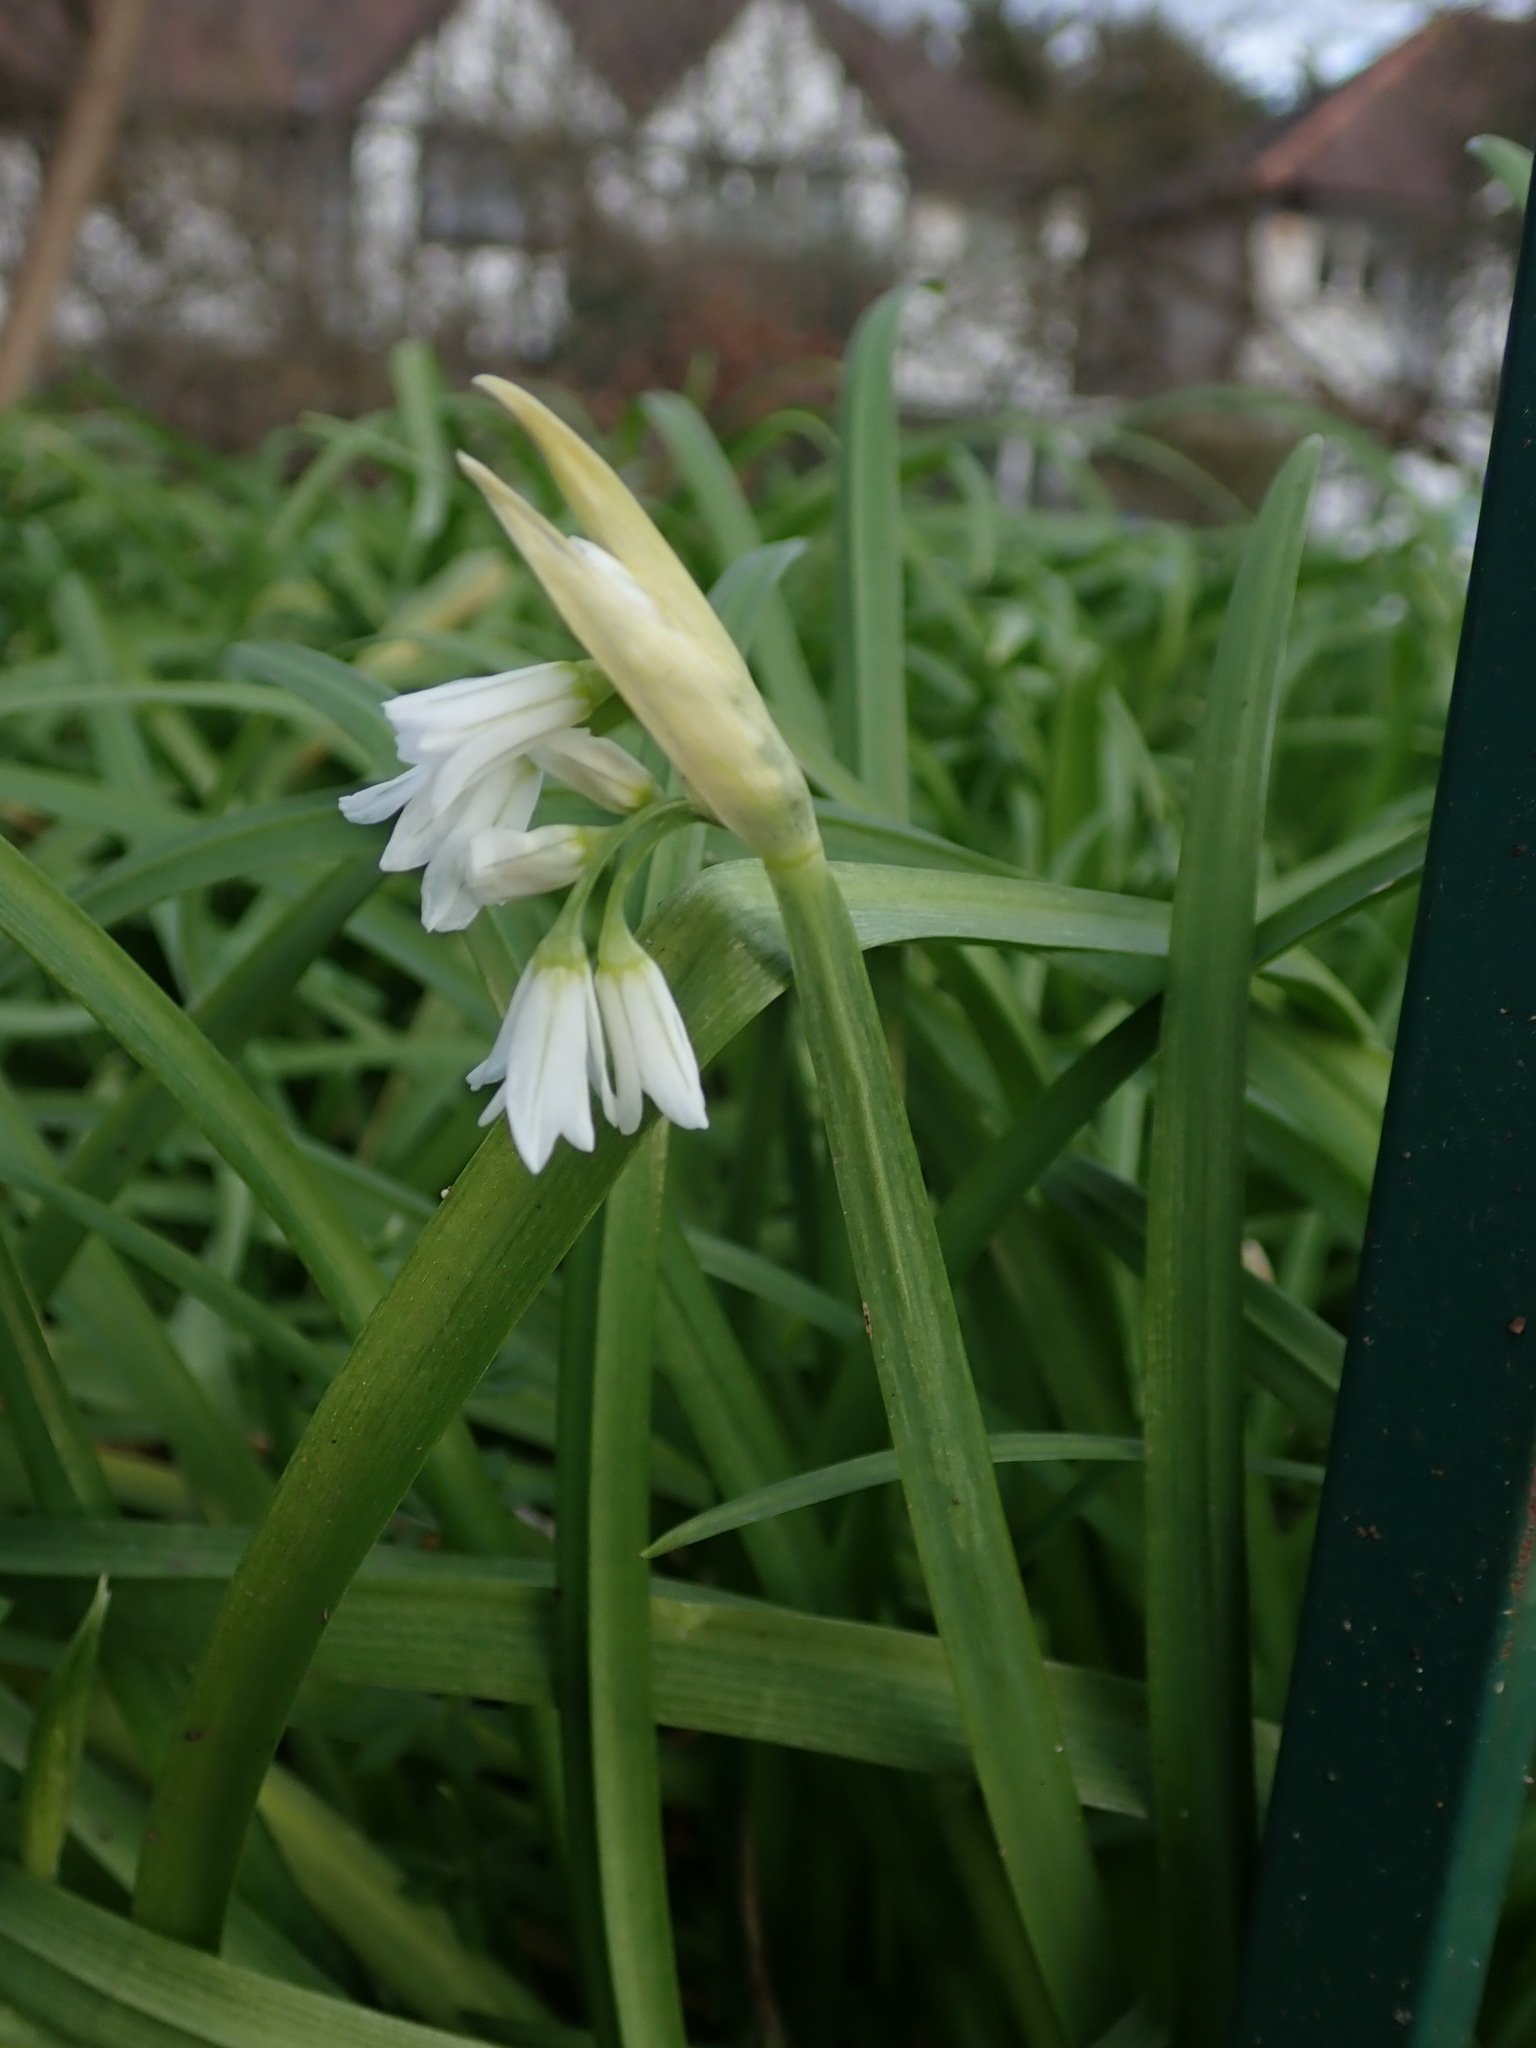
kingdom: Plantae
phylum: Tracheophyta
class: Liliopsida
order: Asparagales
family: Amaryllidaceae
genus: Allium
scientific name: Allium triquetrum
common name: Three-cornered garlic
